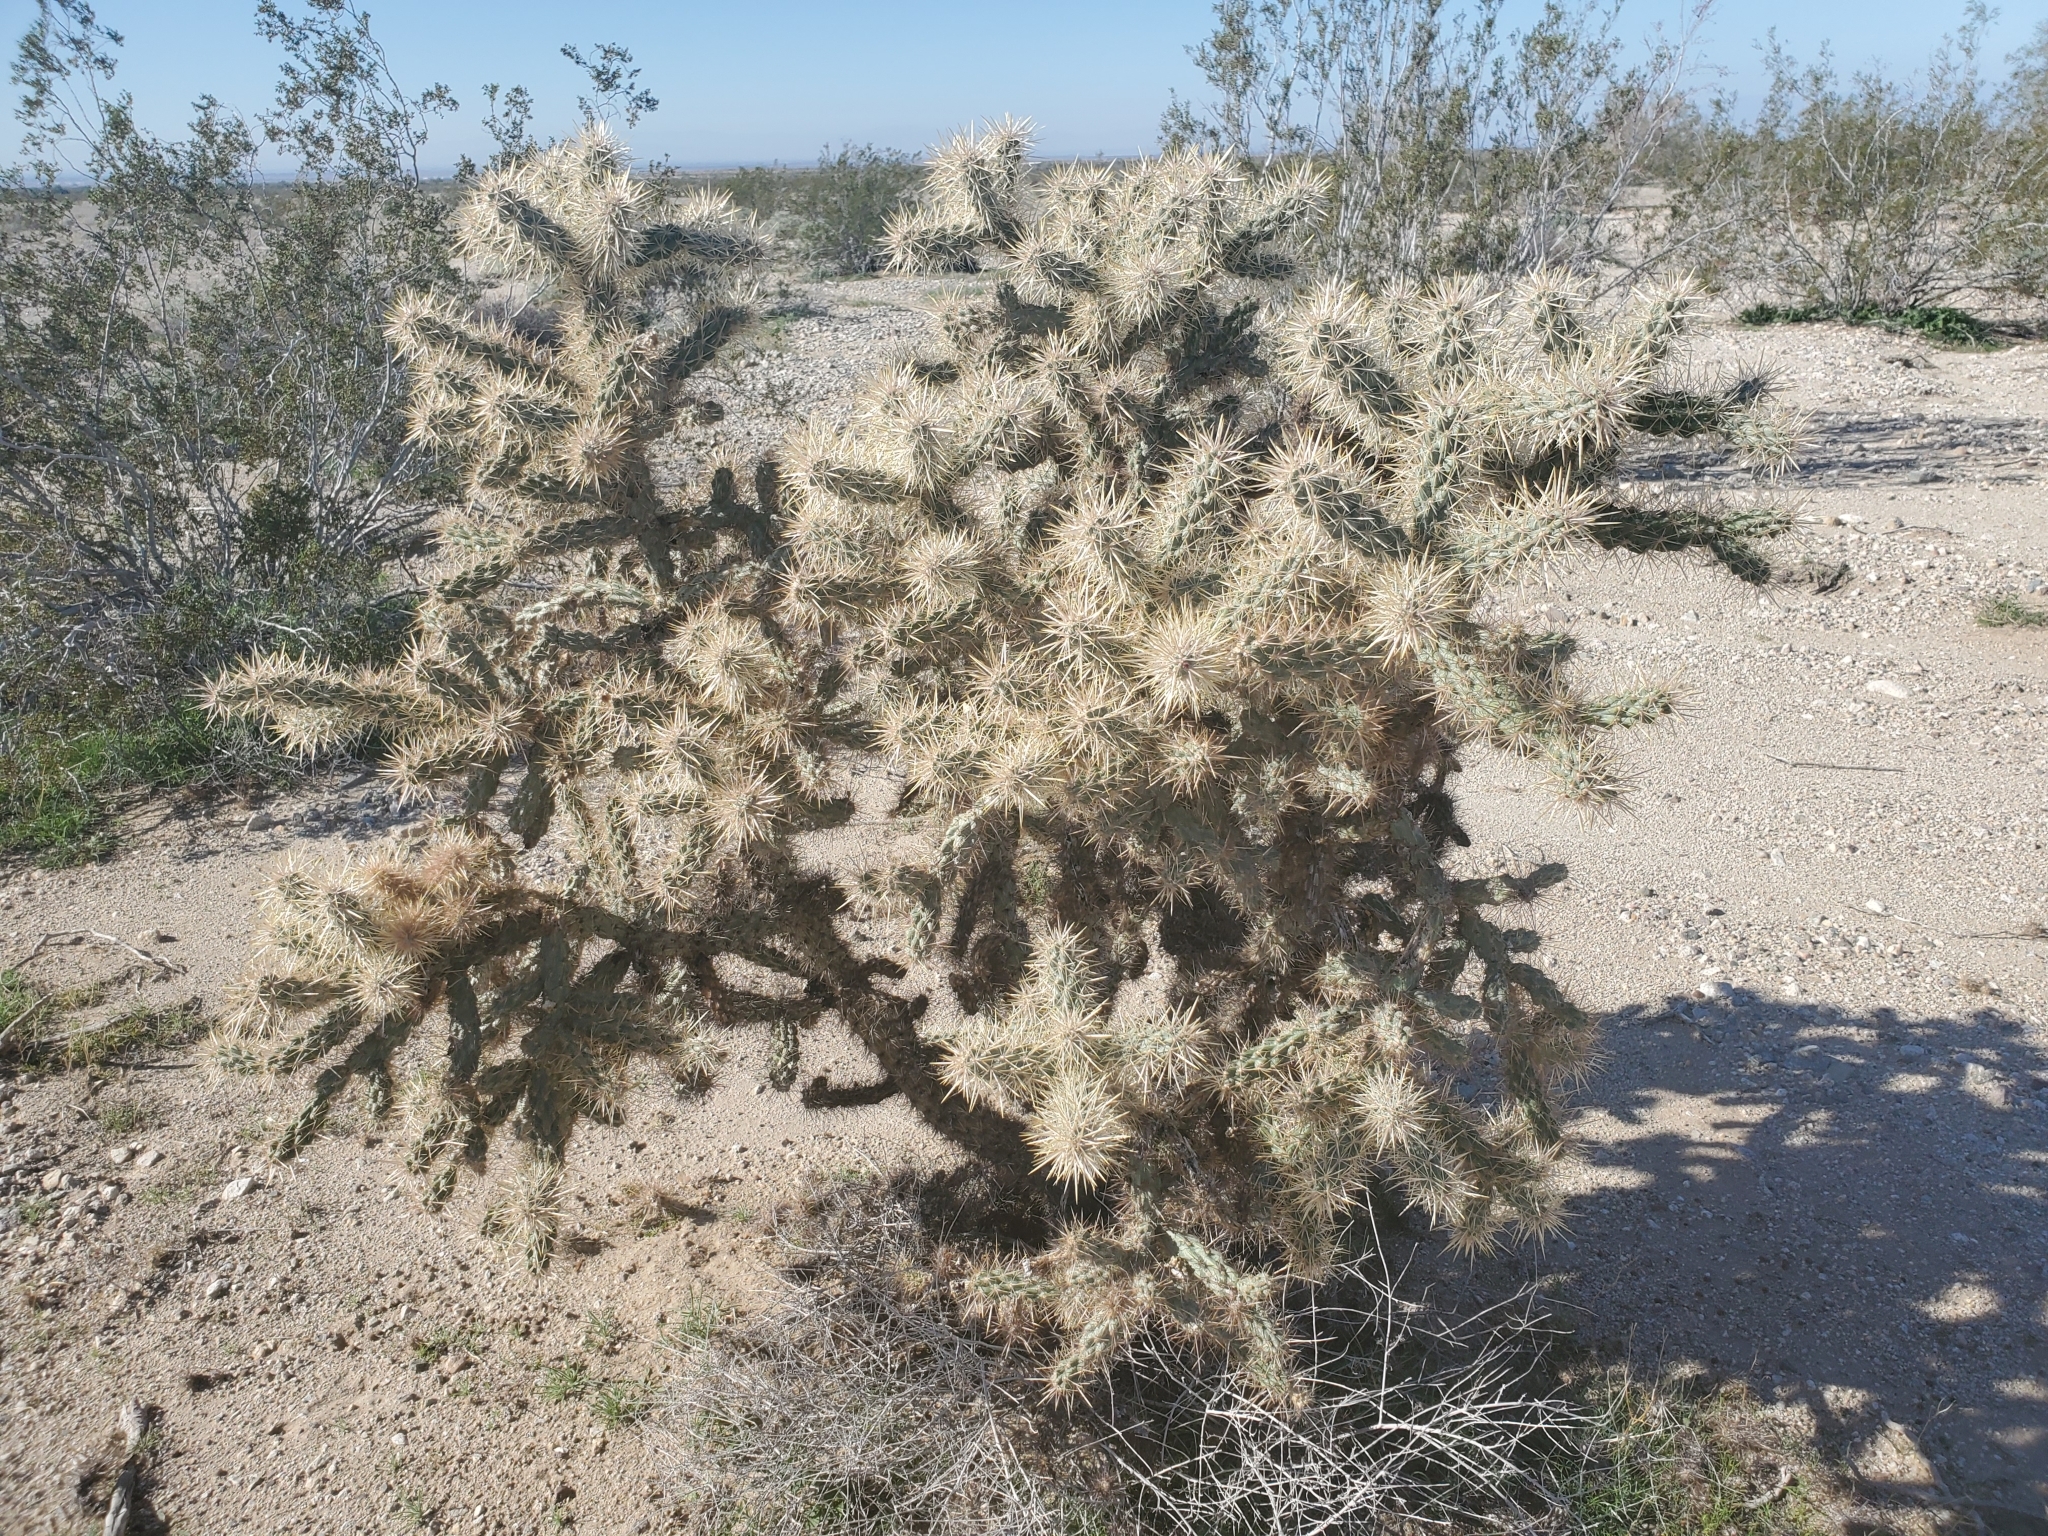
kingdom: Plantae
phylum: Tracheophyta
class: Magnoliopsida
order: Caryophyllales
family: Cactaceae
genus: Cylindropuntia
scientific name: Cylindropuntia munzii
